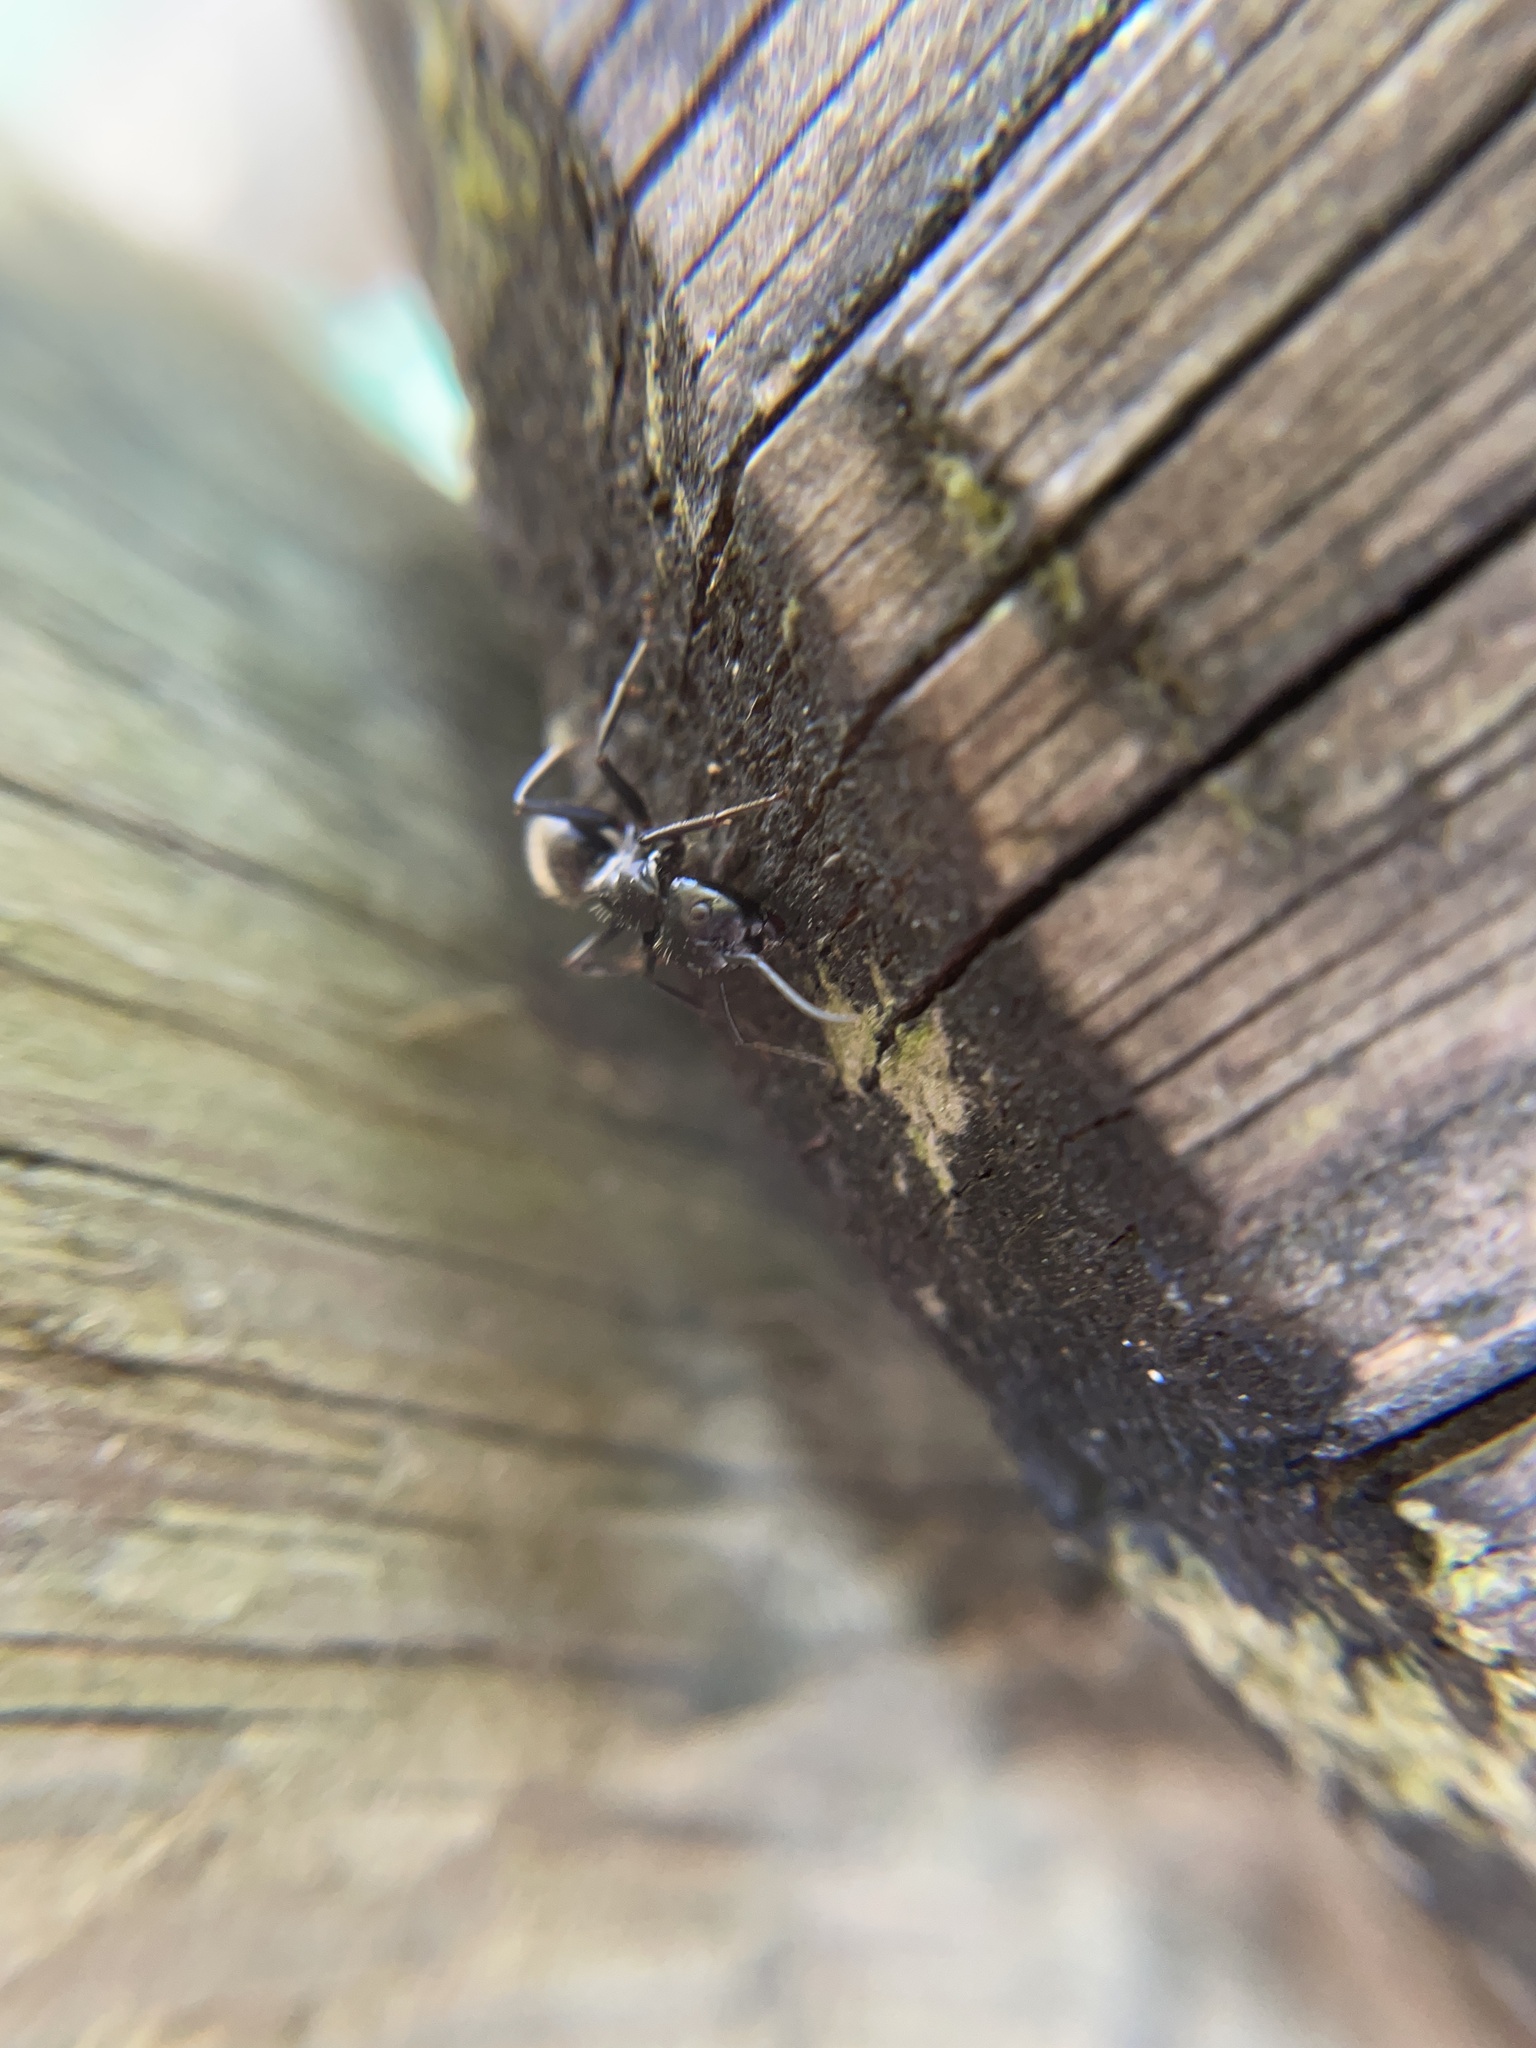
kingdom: Animalia
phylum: Arthropoda
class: Insecta
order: Hymenoptera
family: Formicidae
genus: Camponotus
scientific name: Camponotus vagus
